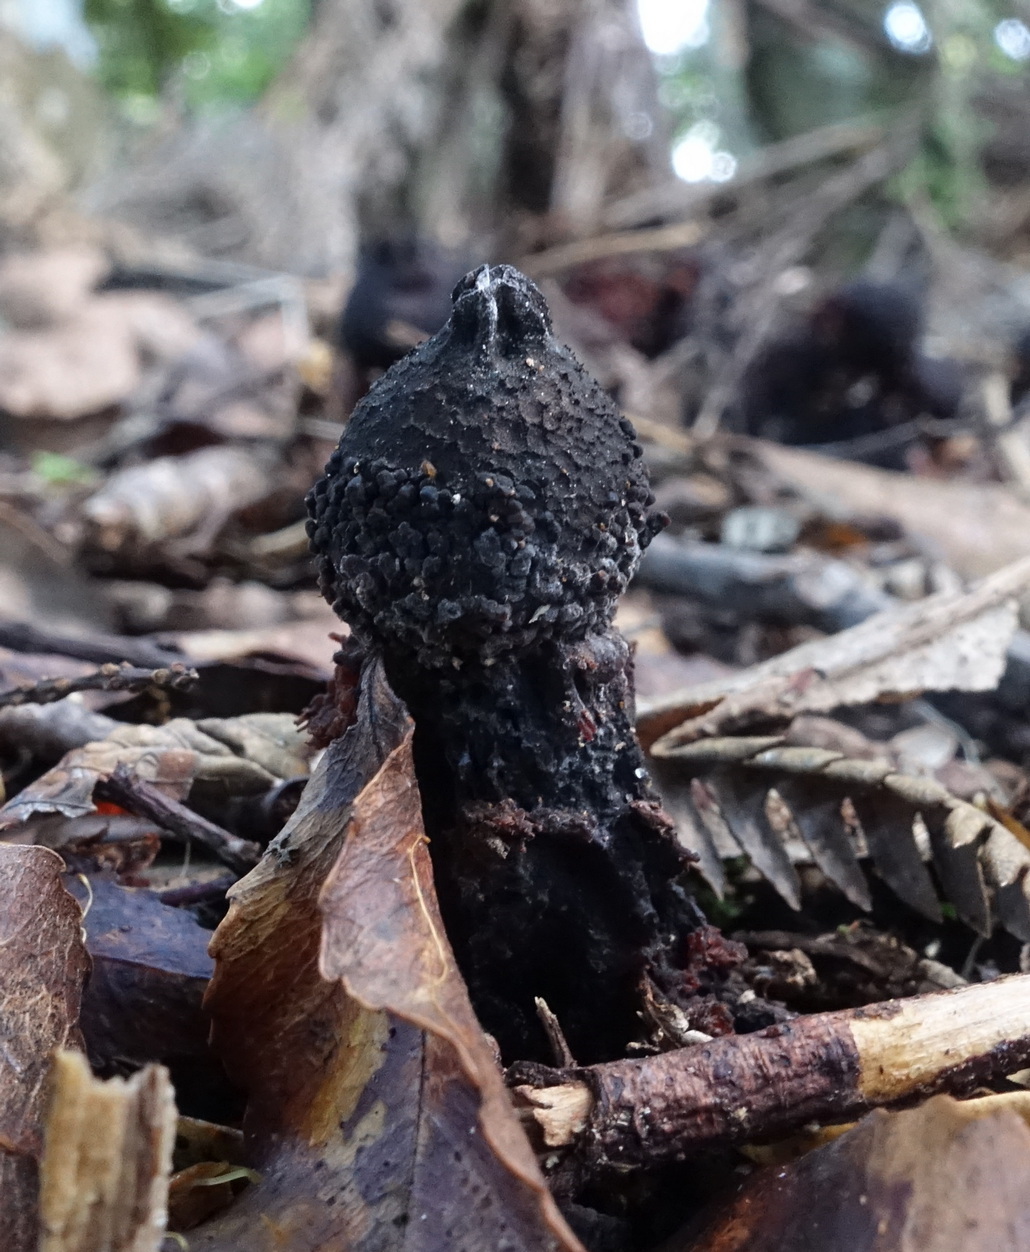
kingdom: Fungi
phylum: Basidiomycota
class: Agaricomycetes
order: Boletales
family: Calostomataceae
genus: Calostoma
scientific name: Calostoma fuscum
